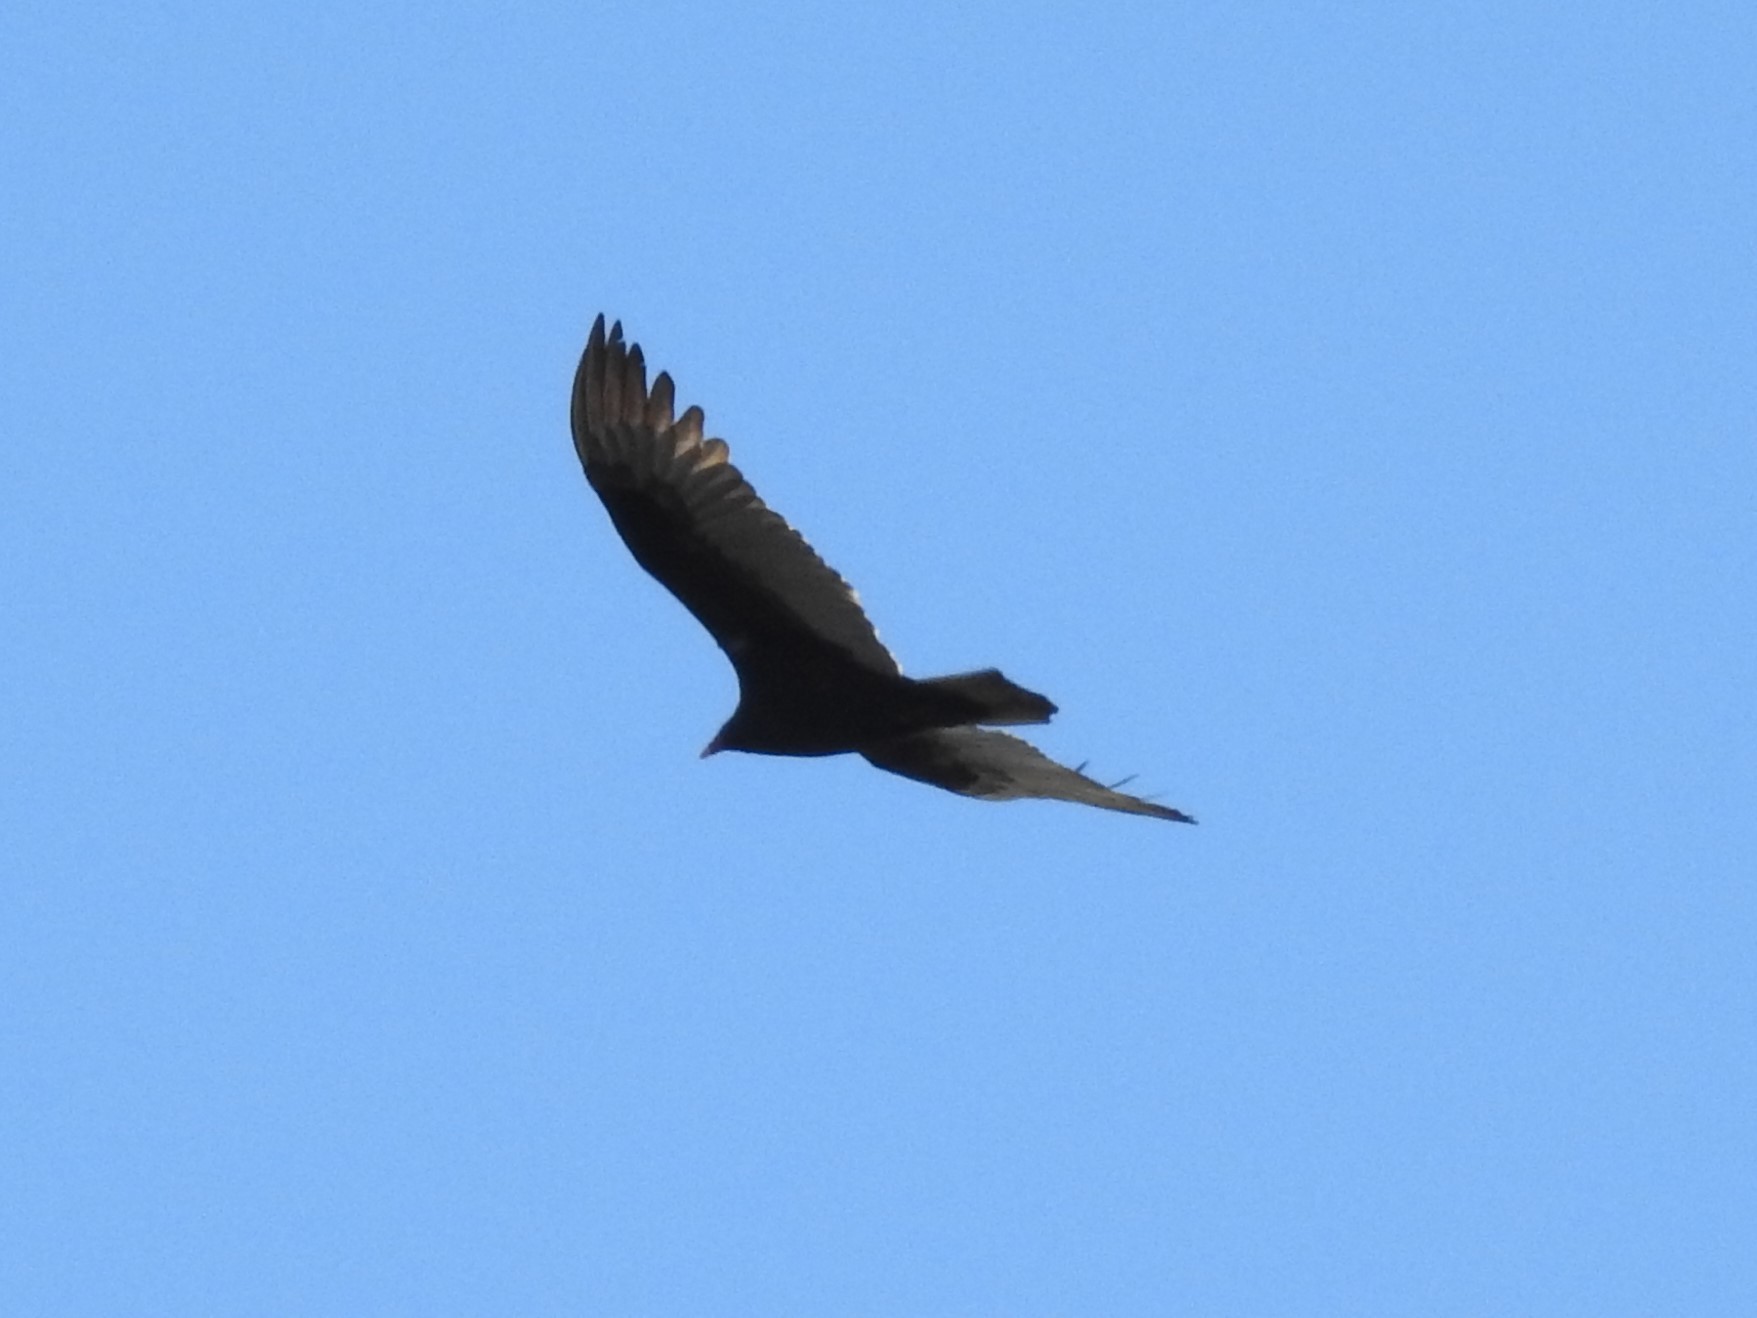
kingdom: Animalia
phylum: Chordata
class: Aves
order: Accipitriformes
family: Cathartidae
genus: Cathartes
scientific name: Cathartes aura
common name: Turkey vulture
